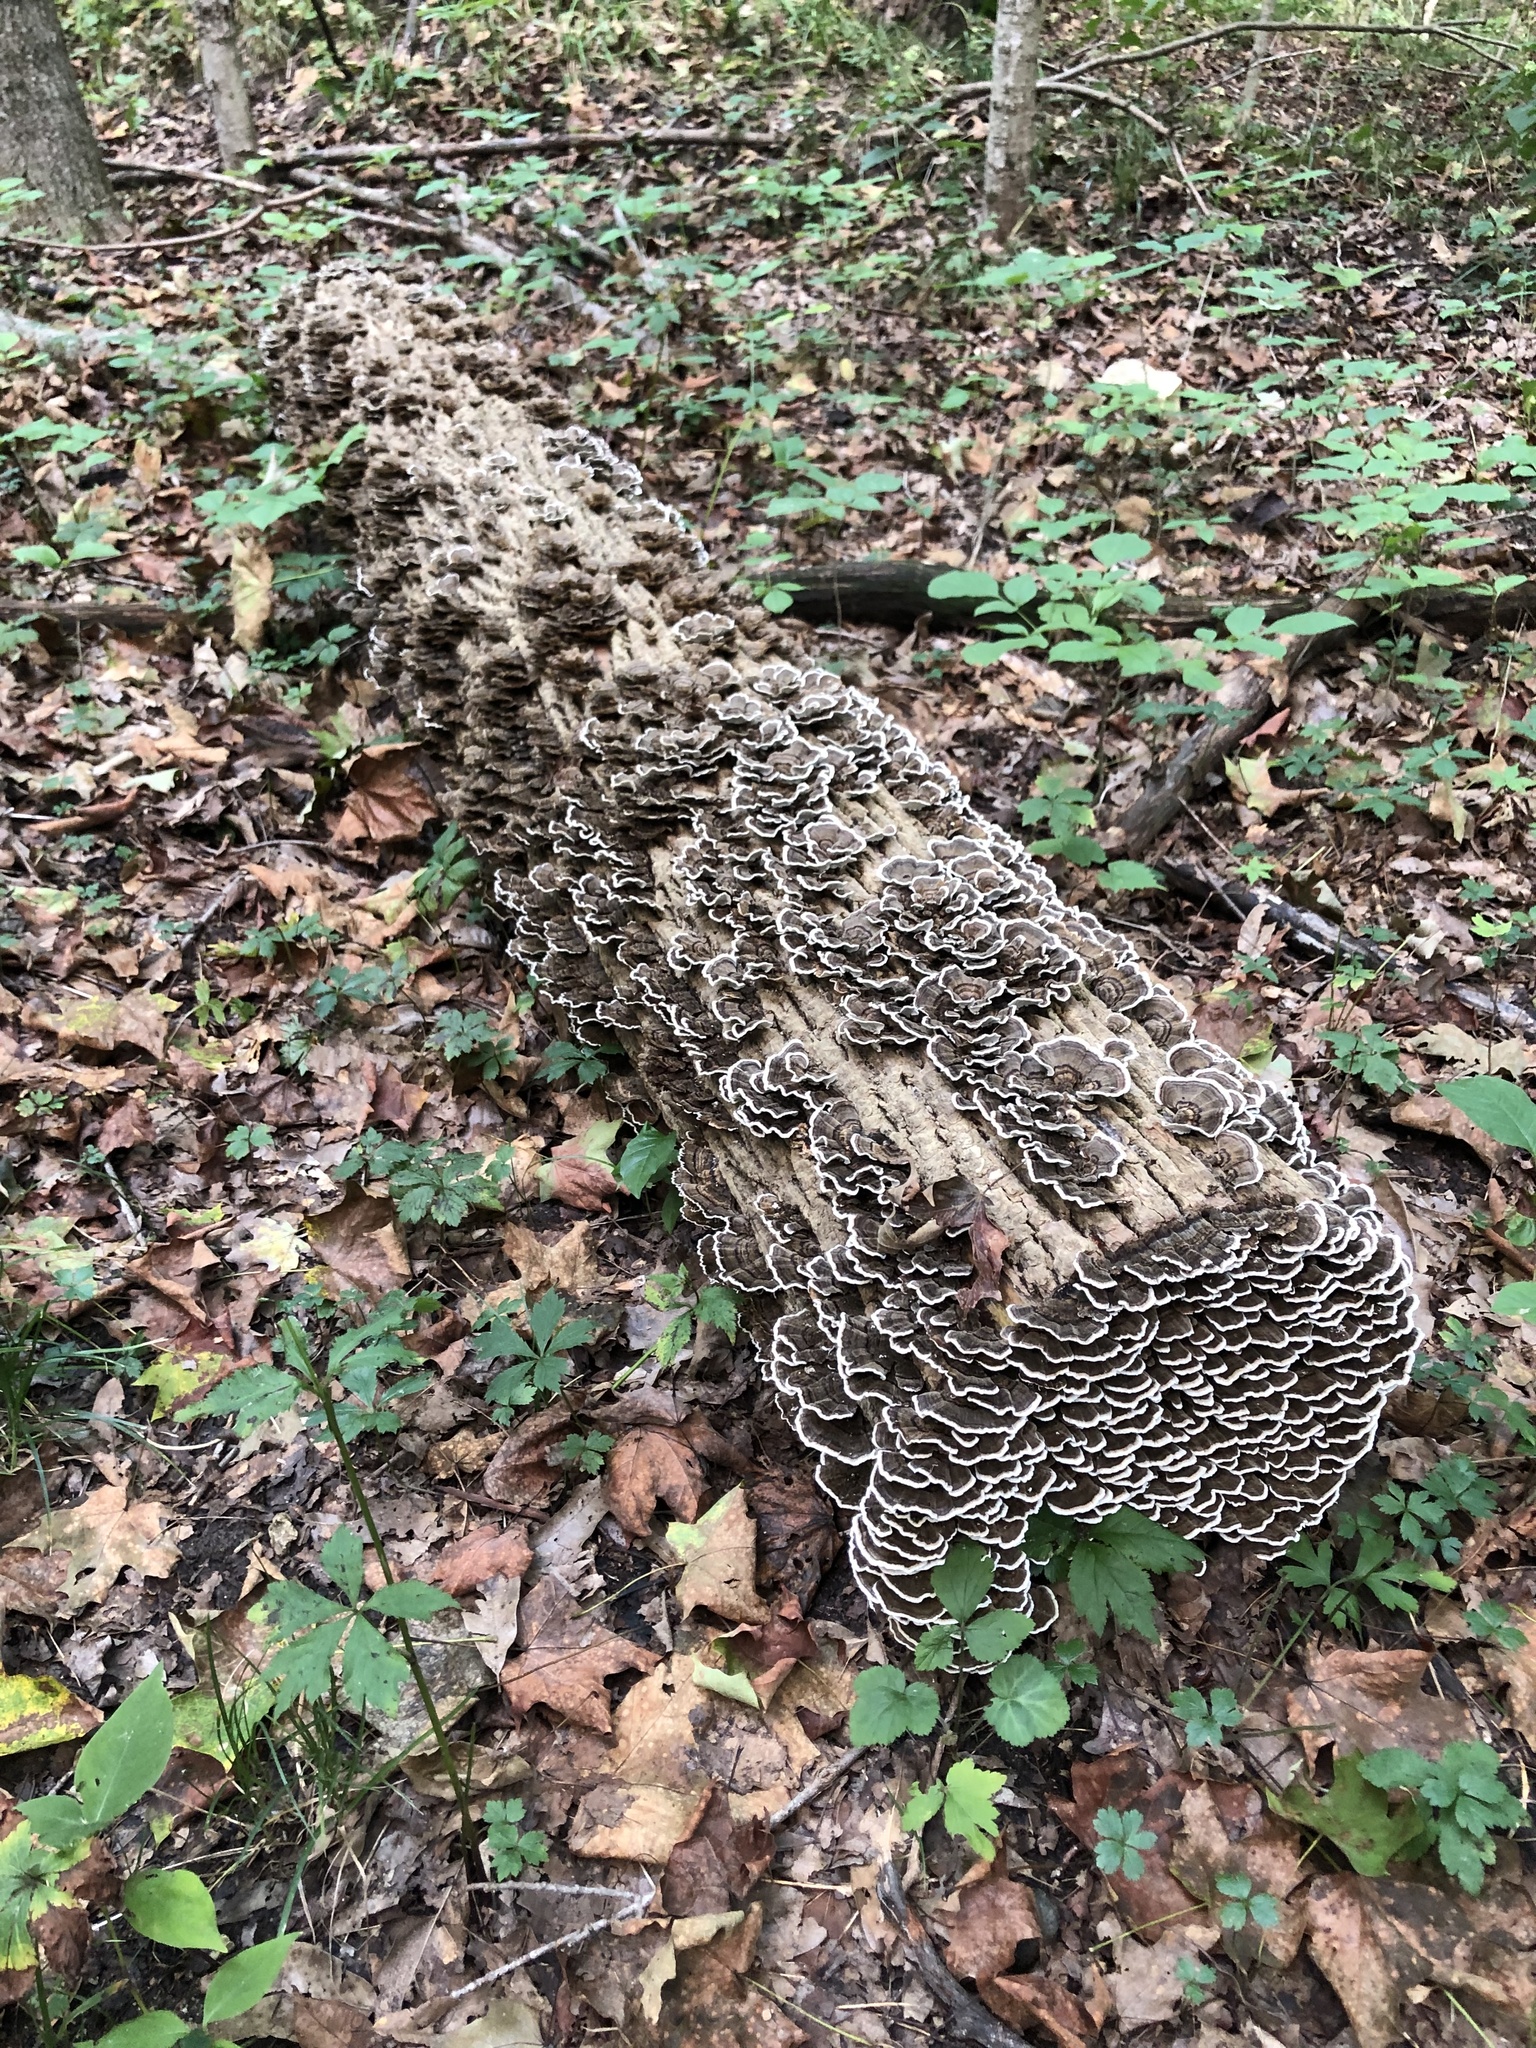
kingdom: Fungi
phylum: Basidiomycota
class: Agaricomycetes
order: Polyporales
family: Polyporaceae
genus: Trametes
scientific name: Trametes versicolor
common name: Turkeytail
